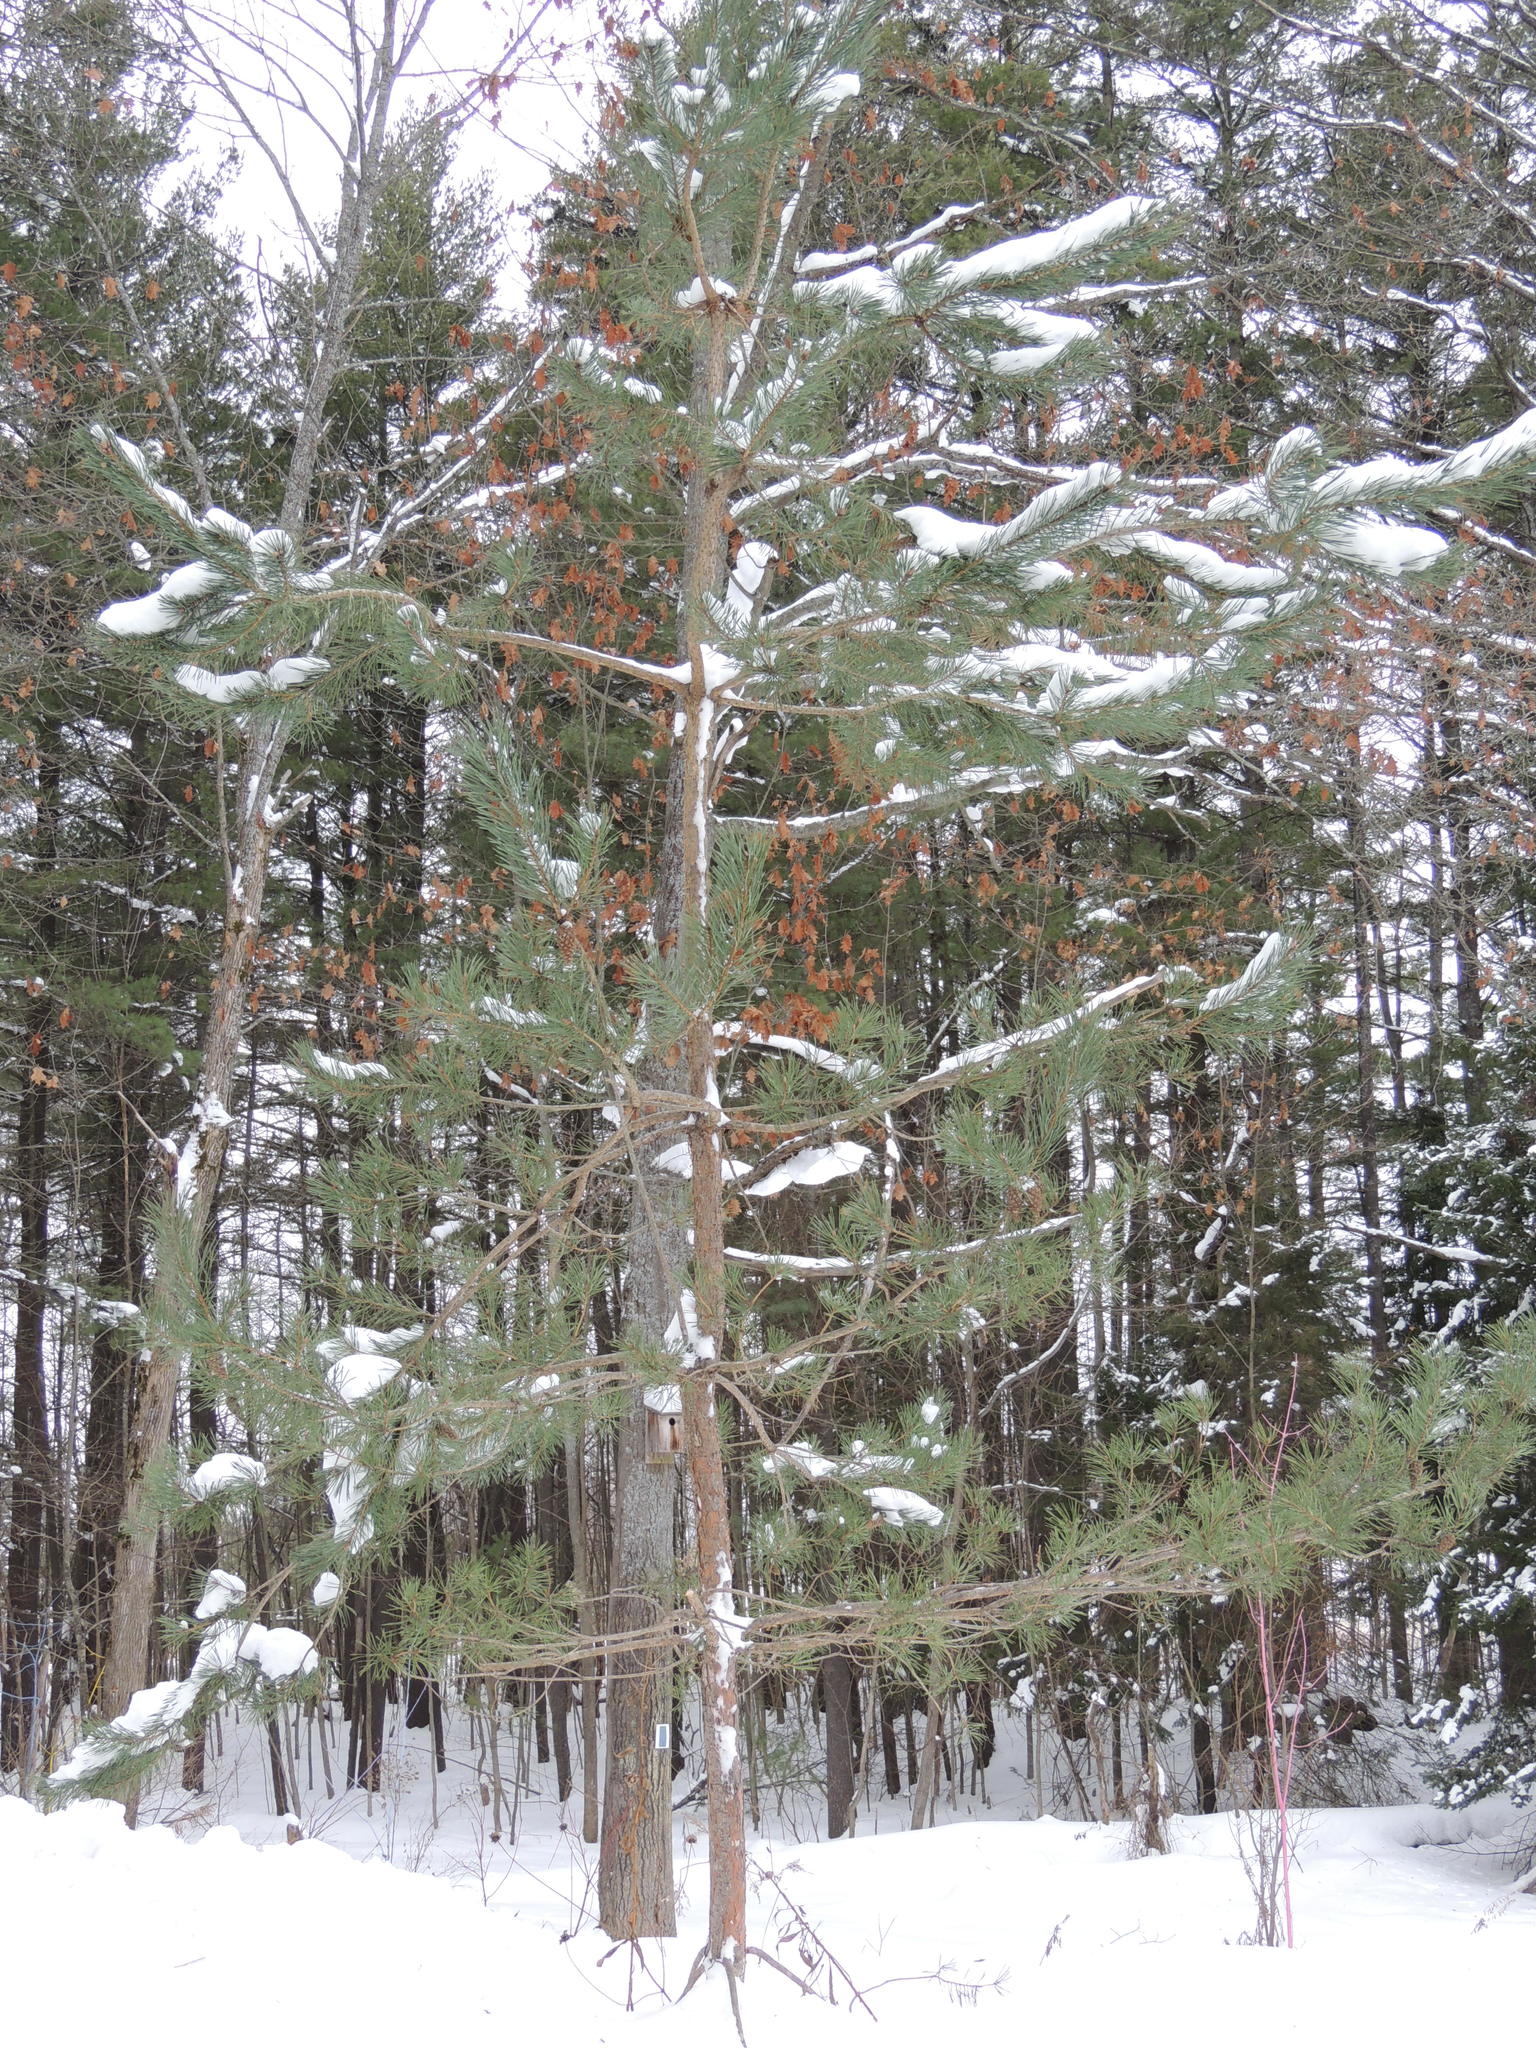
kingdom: Plantae
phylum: Tracheophyta
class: Pinopsida
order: Pinales
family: Pinaceae
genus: Pinus
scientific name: Pinus sylvestris
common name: Scots pine
